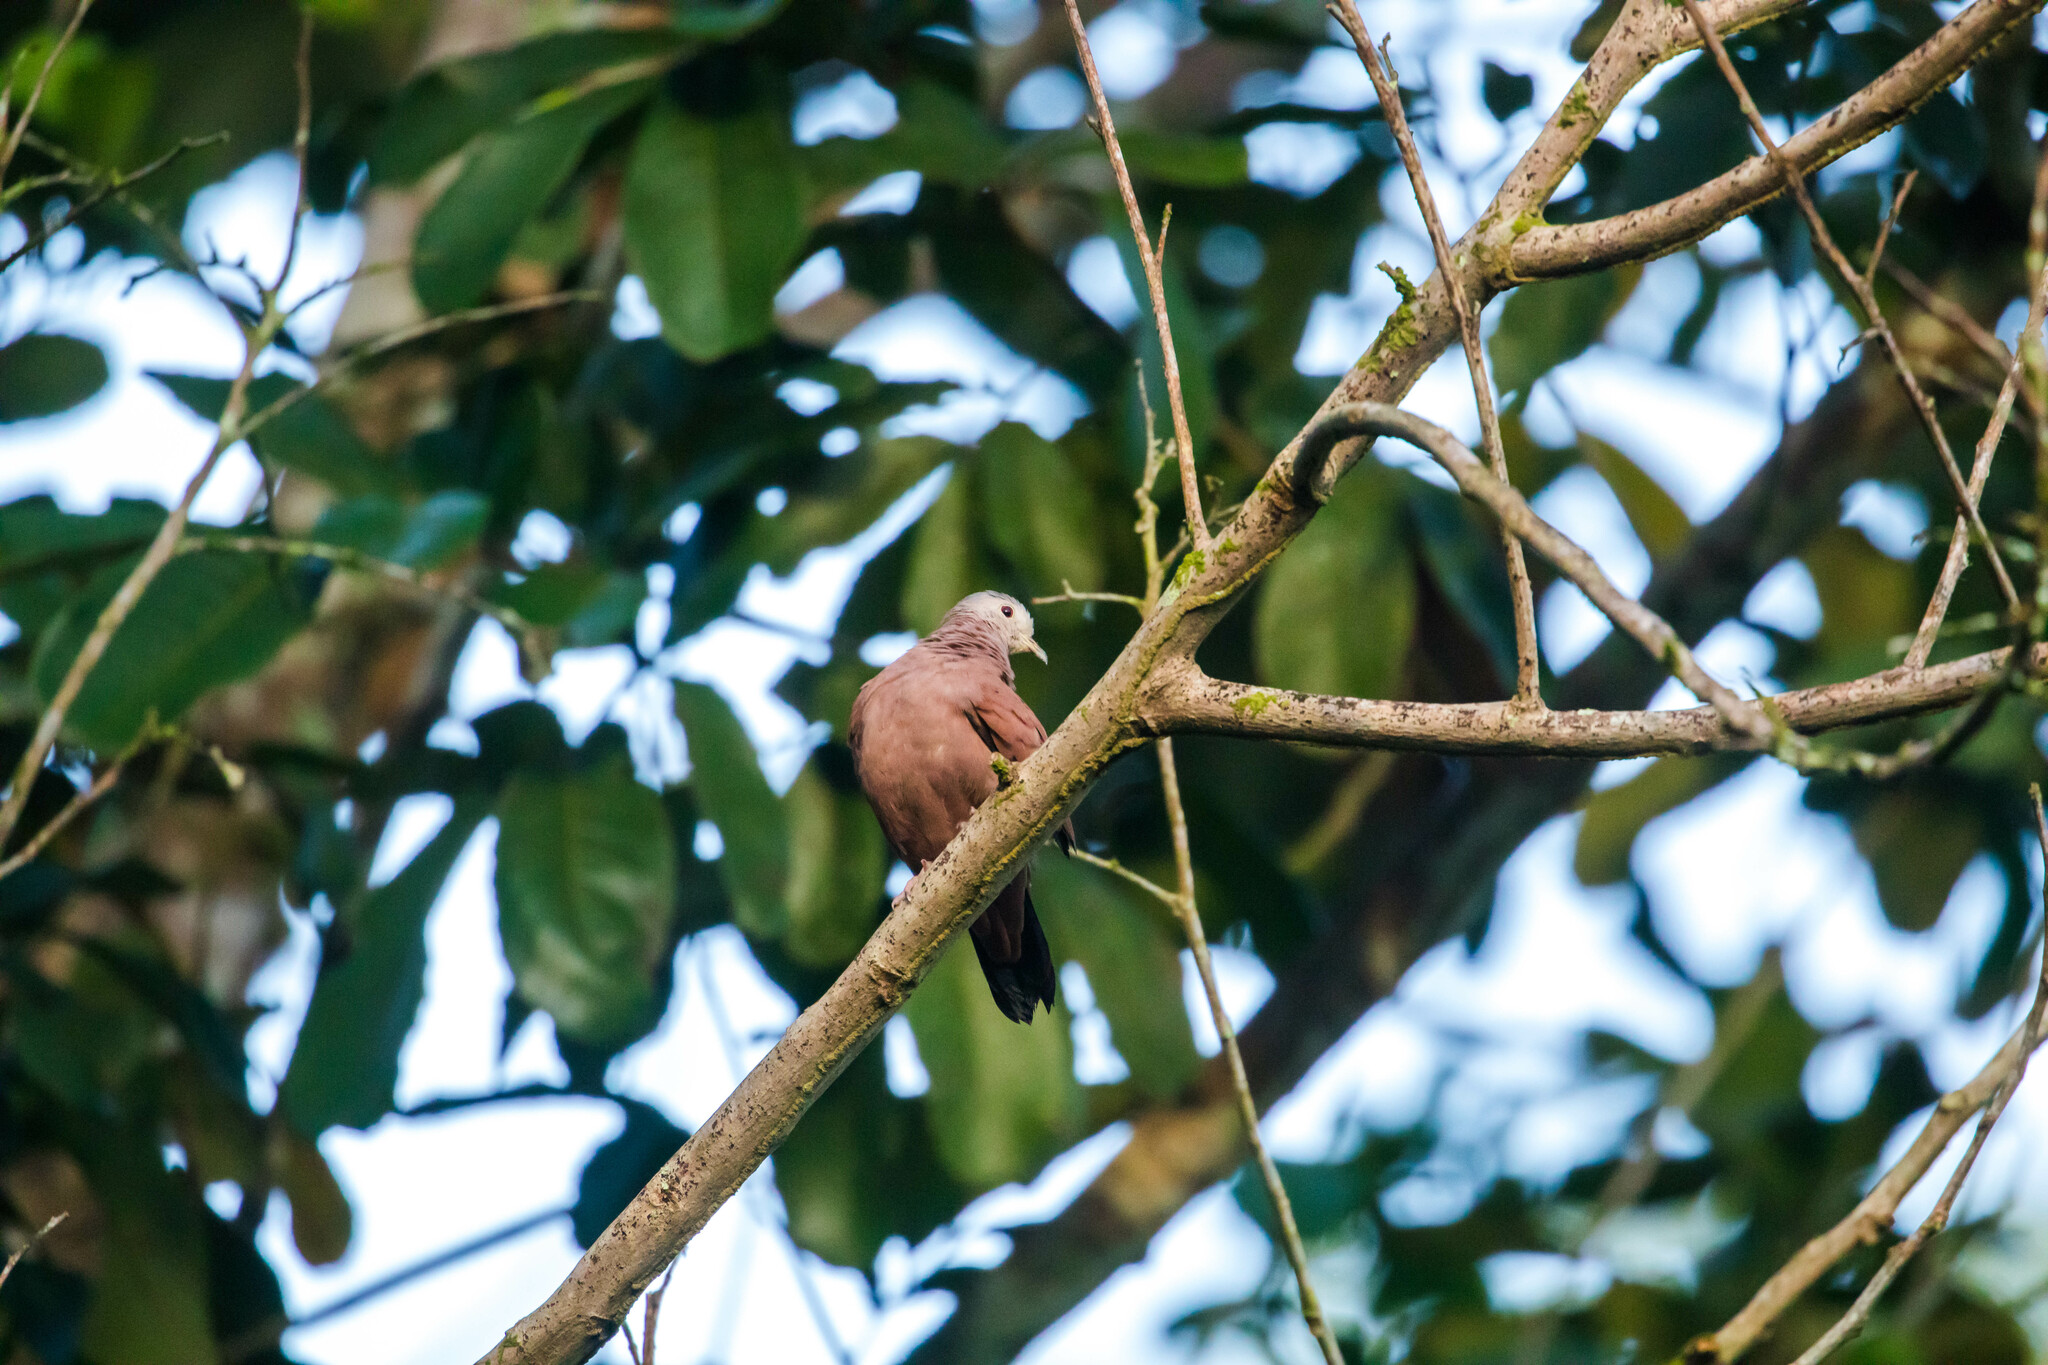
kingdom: Animalia
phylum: Chordata
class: Aves
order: Columbiformes
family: Columbidae
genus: Columbina
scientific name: Columbina talpacoti
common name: Ruddy ground dove
